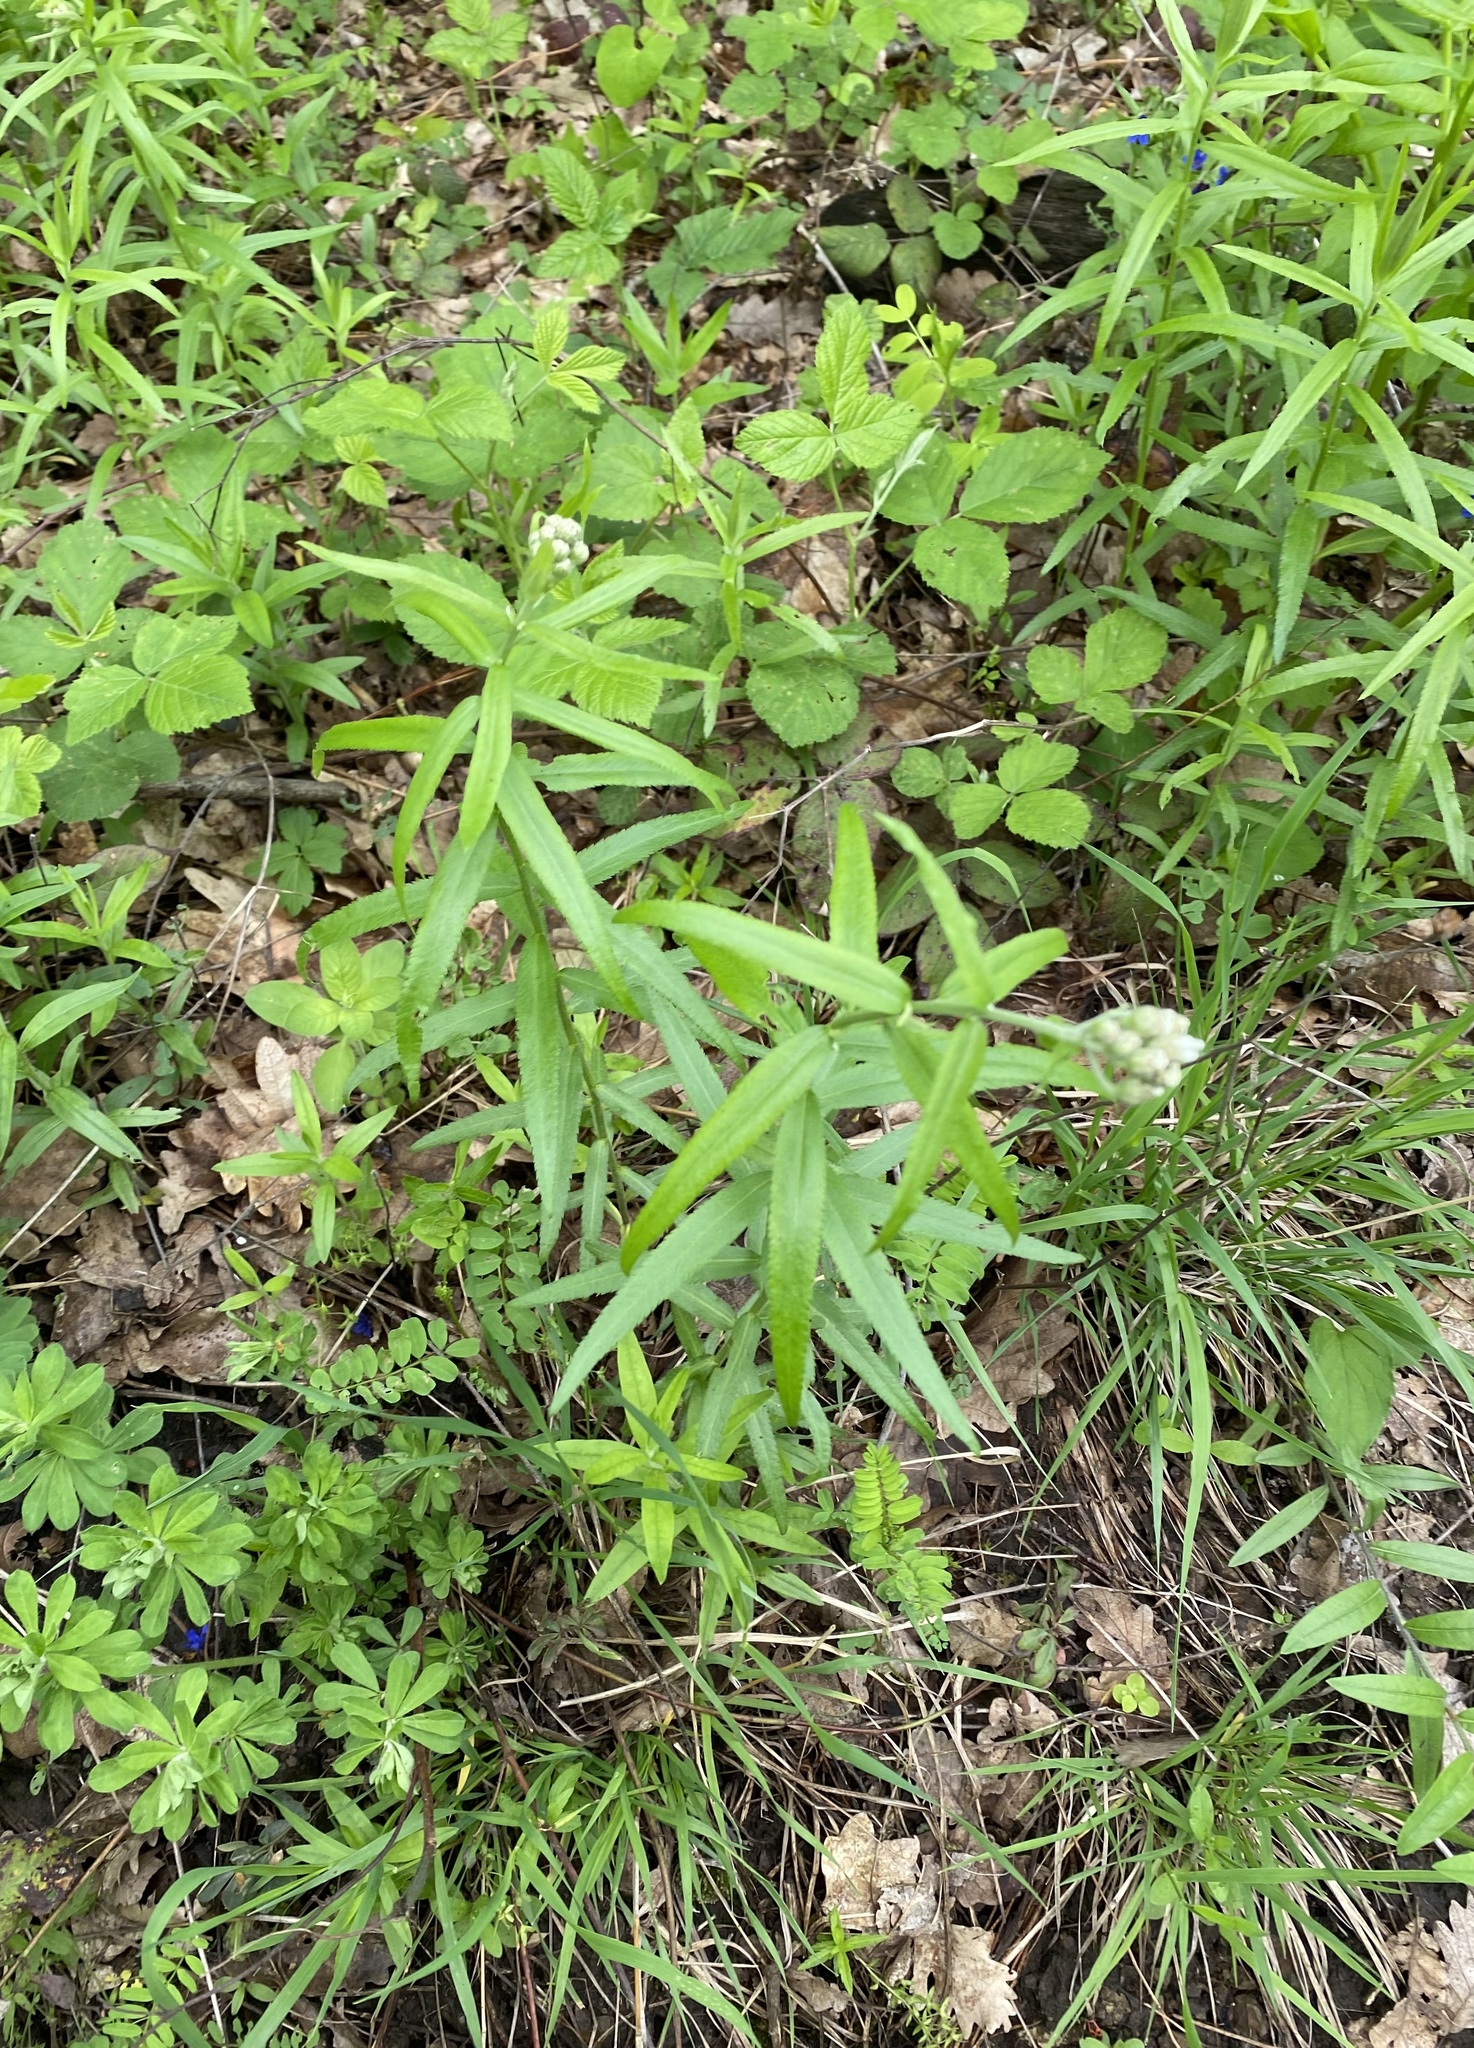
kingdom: Plantae
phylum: Tracheophyta
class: Magnoliopsida
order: Asterales
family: Asteraceae
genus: Achillea
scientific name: Achillea biserrata
